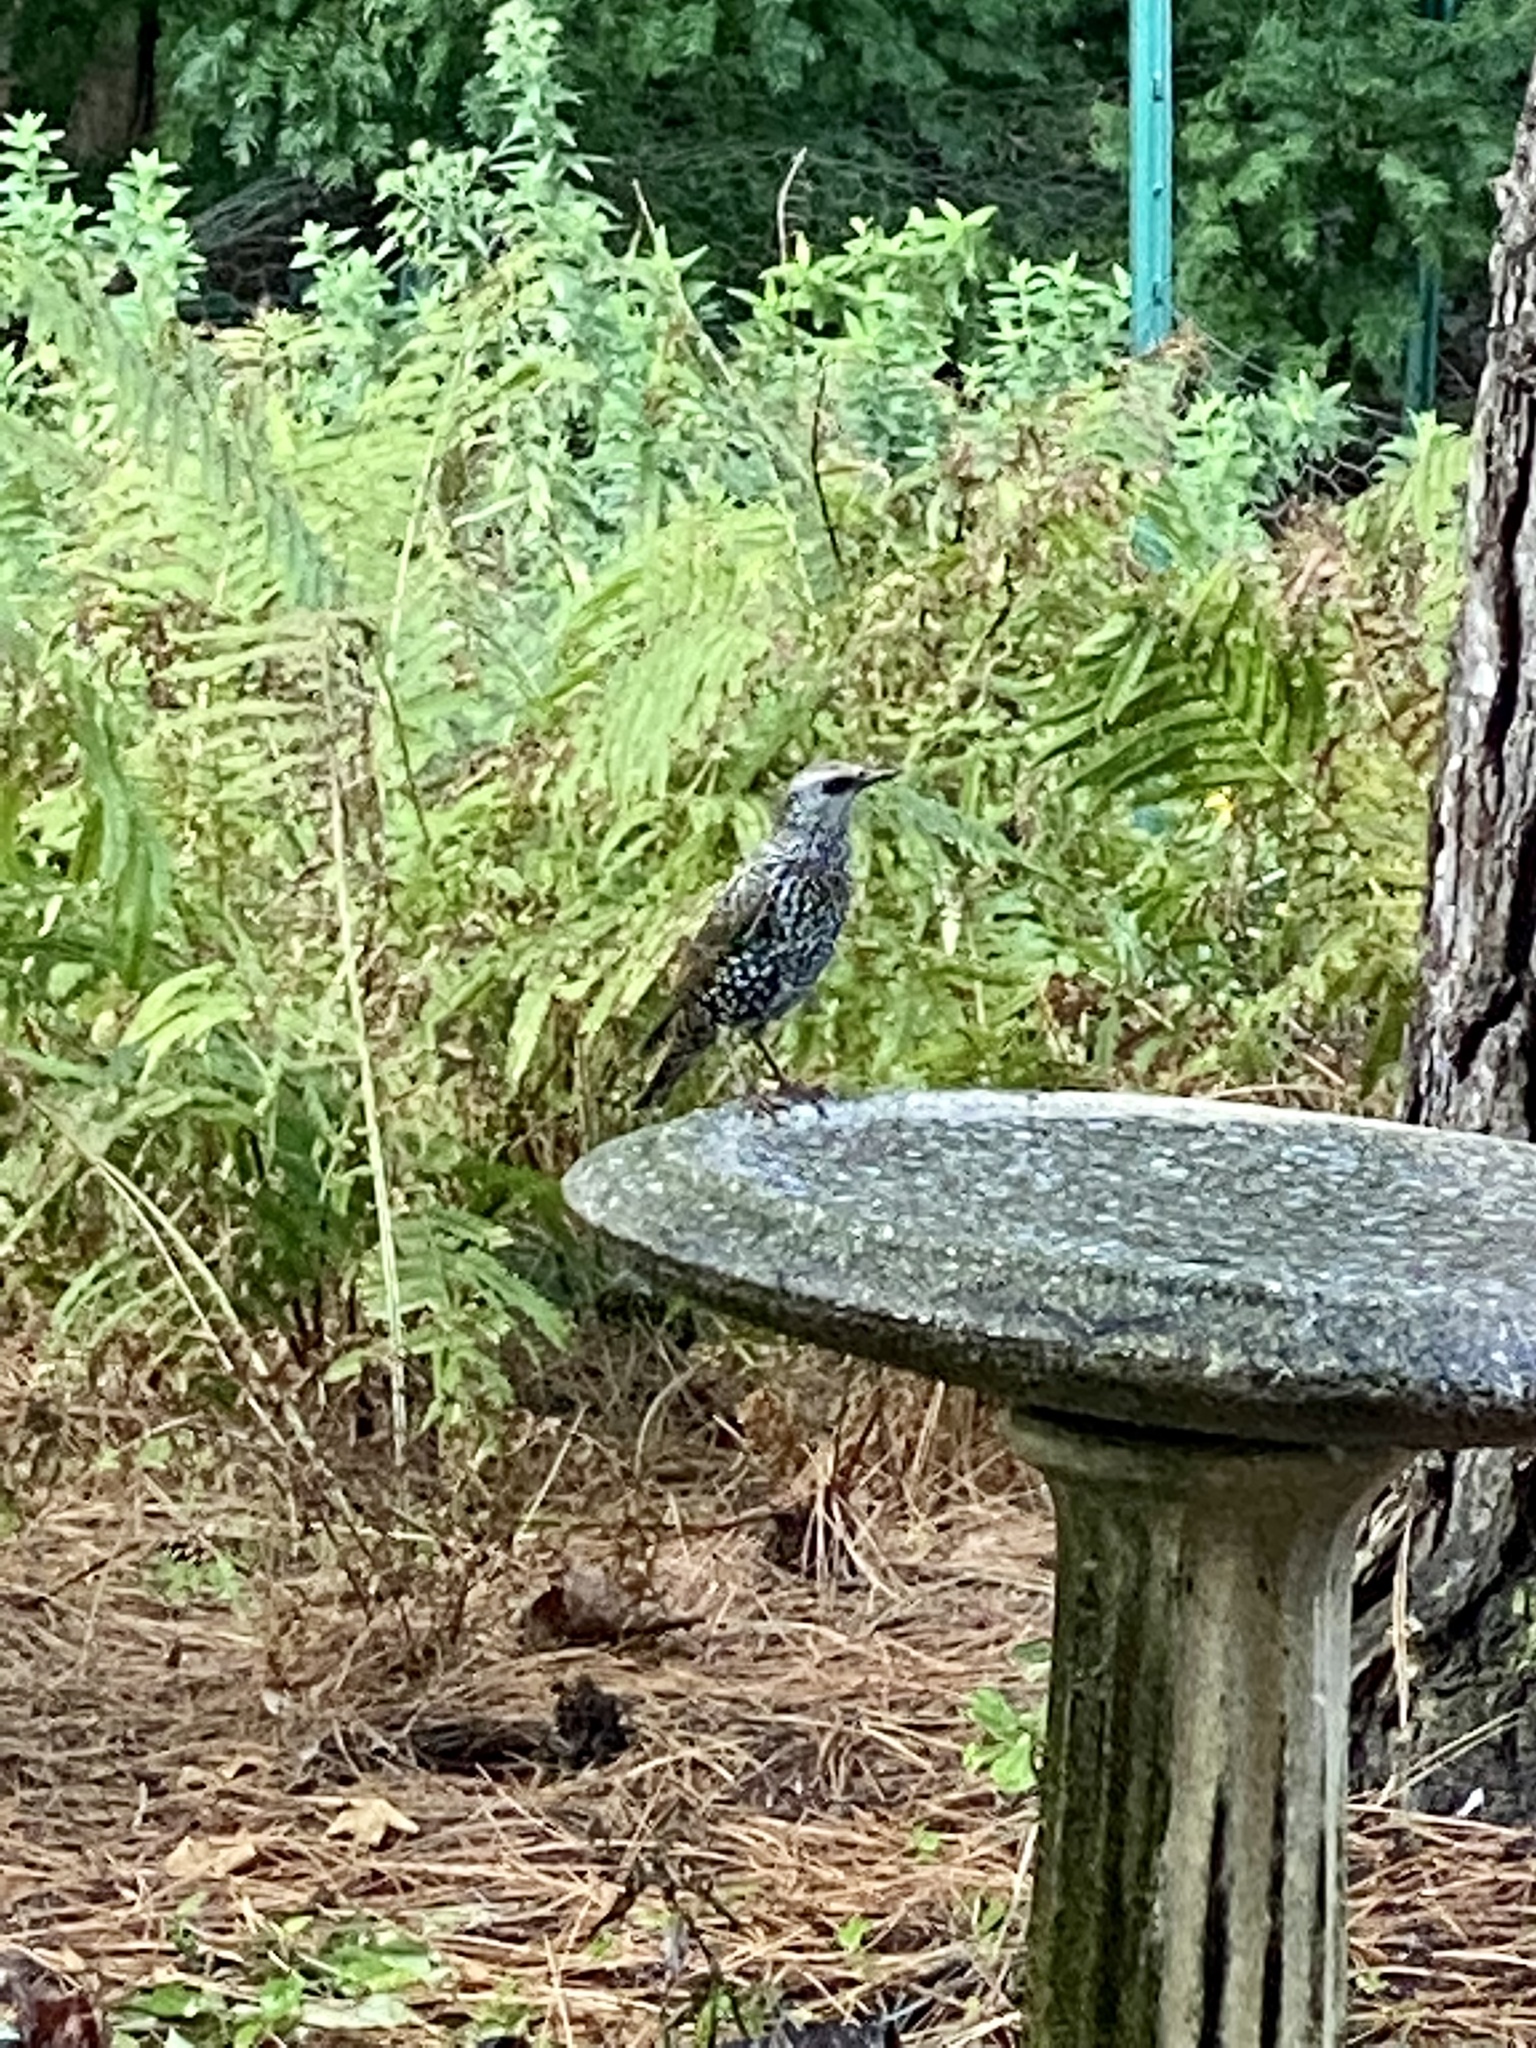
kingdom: Animalia
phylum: Chordata
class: Aves
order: Passeriformes
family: Sturnidae
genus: Sturnus
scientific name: Sturnus vulgaris
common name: Common starling
